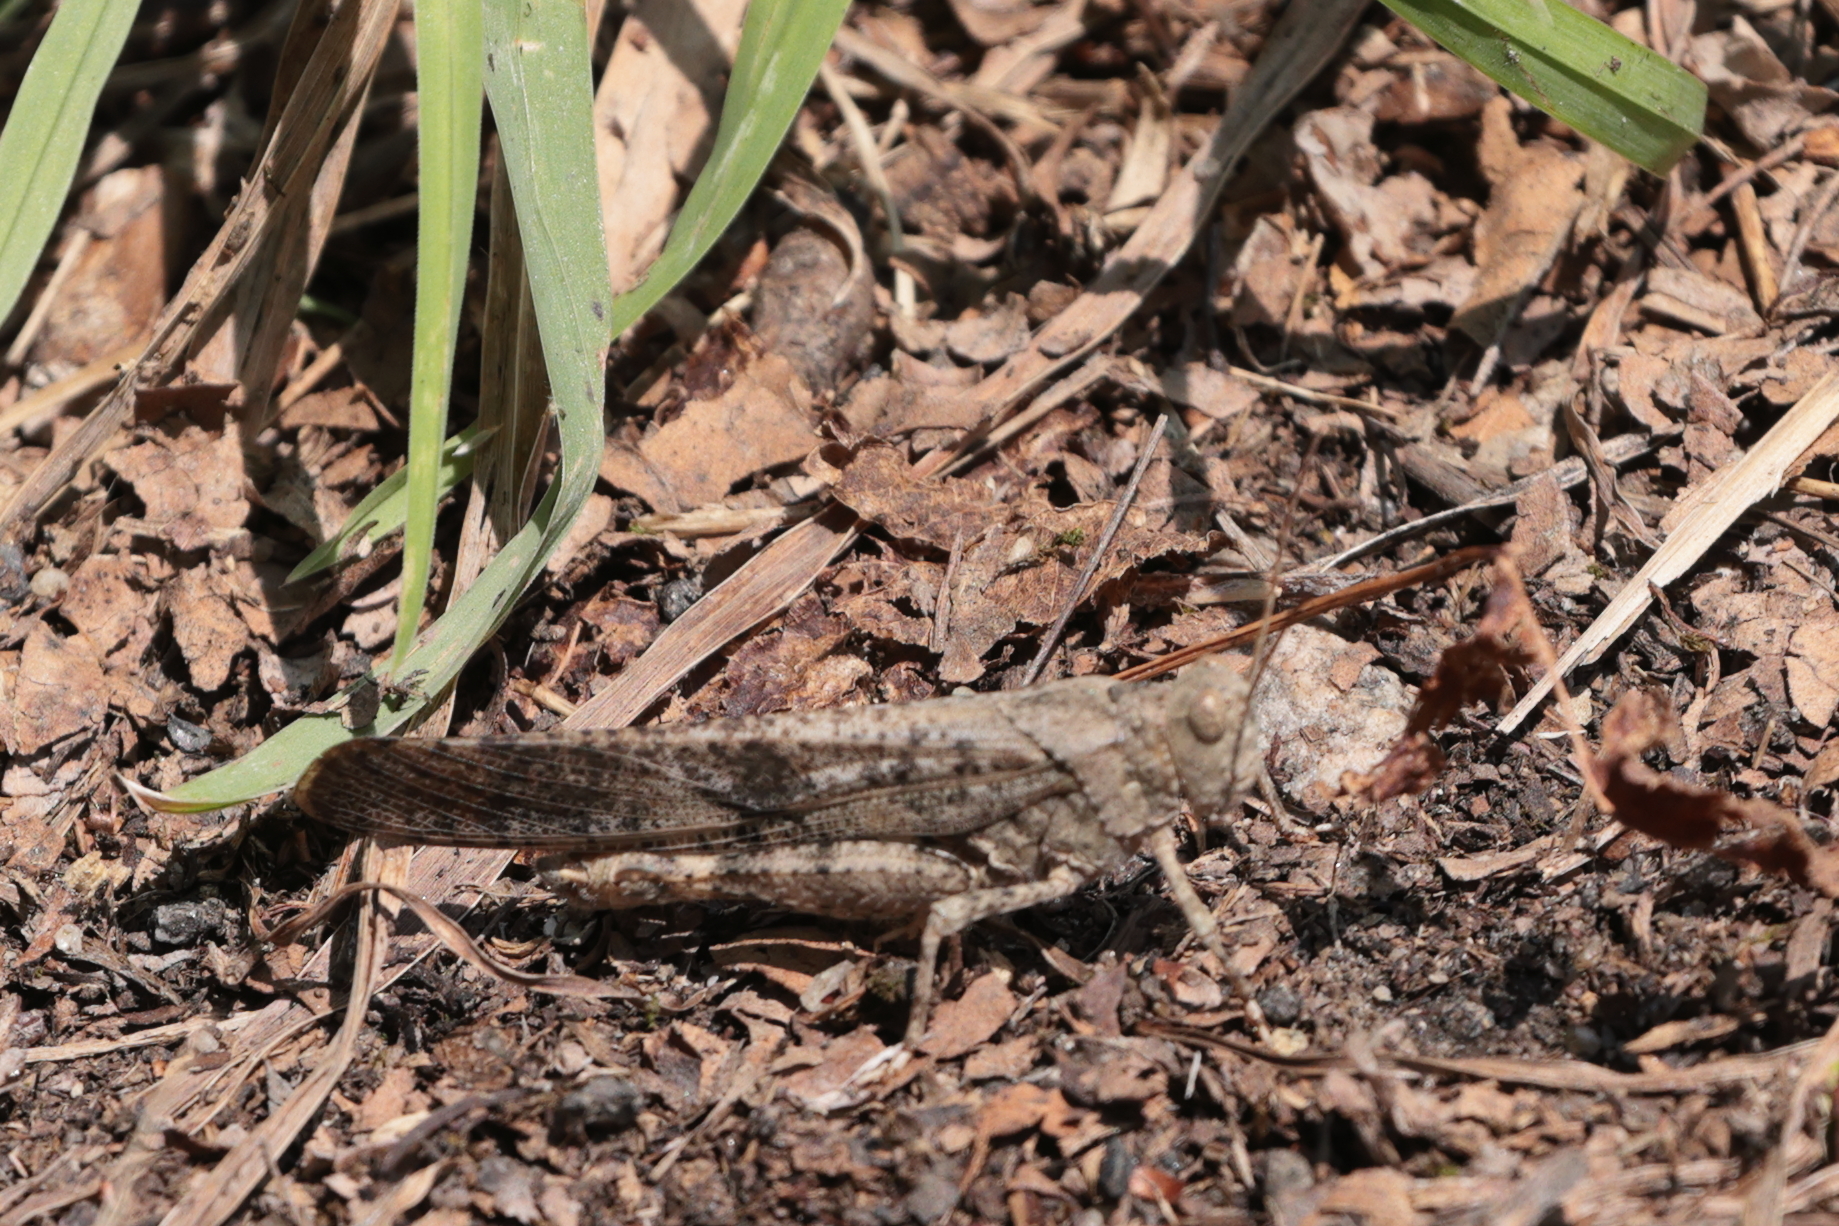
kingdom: Animalia
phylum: Arthropoda
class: Insecta
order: Orthoptera
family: Acrididae
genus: Dissosteira
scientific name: Dissosteira carolina
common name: Carolina grasshopper
